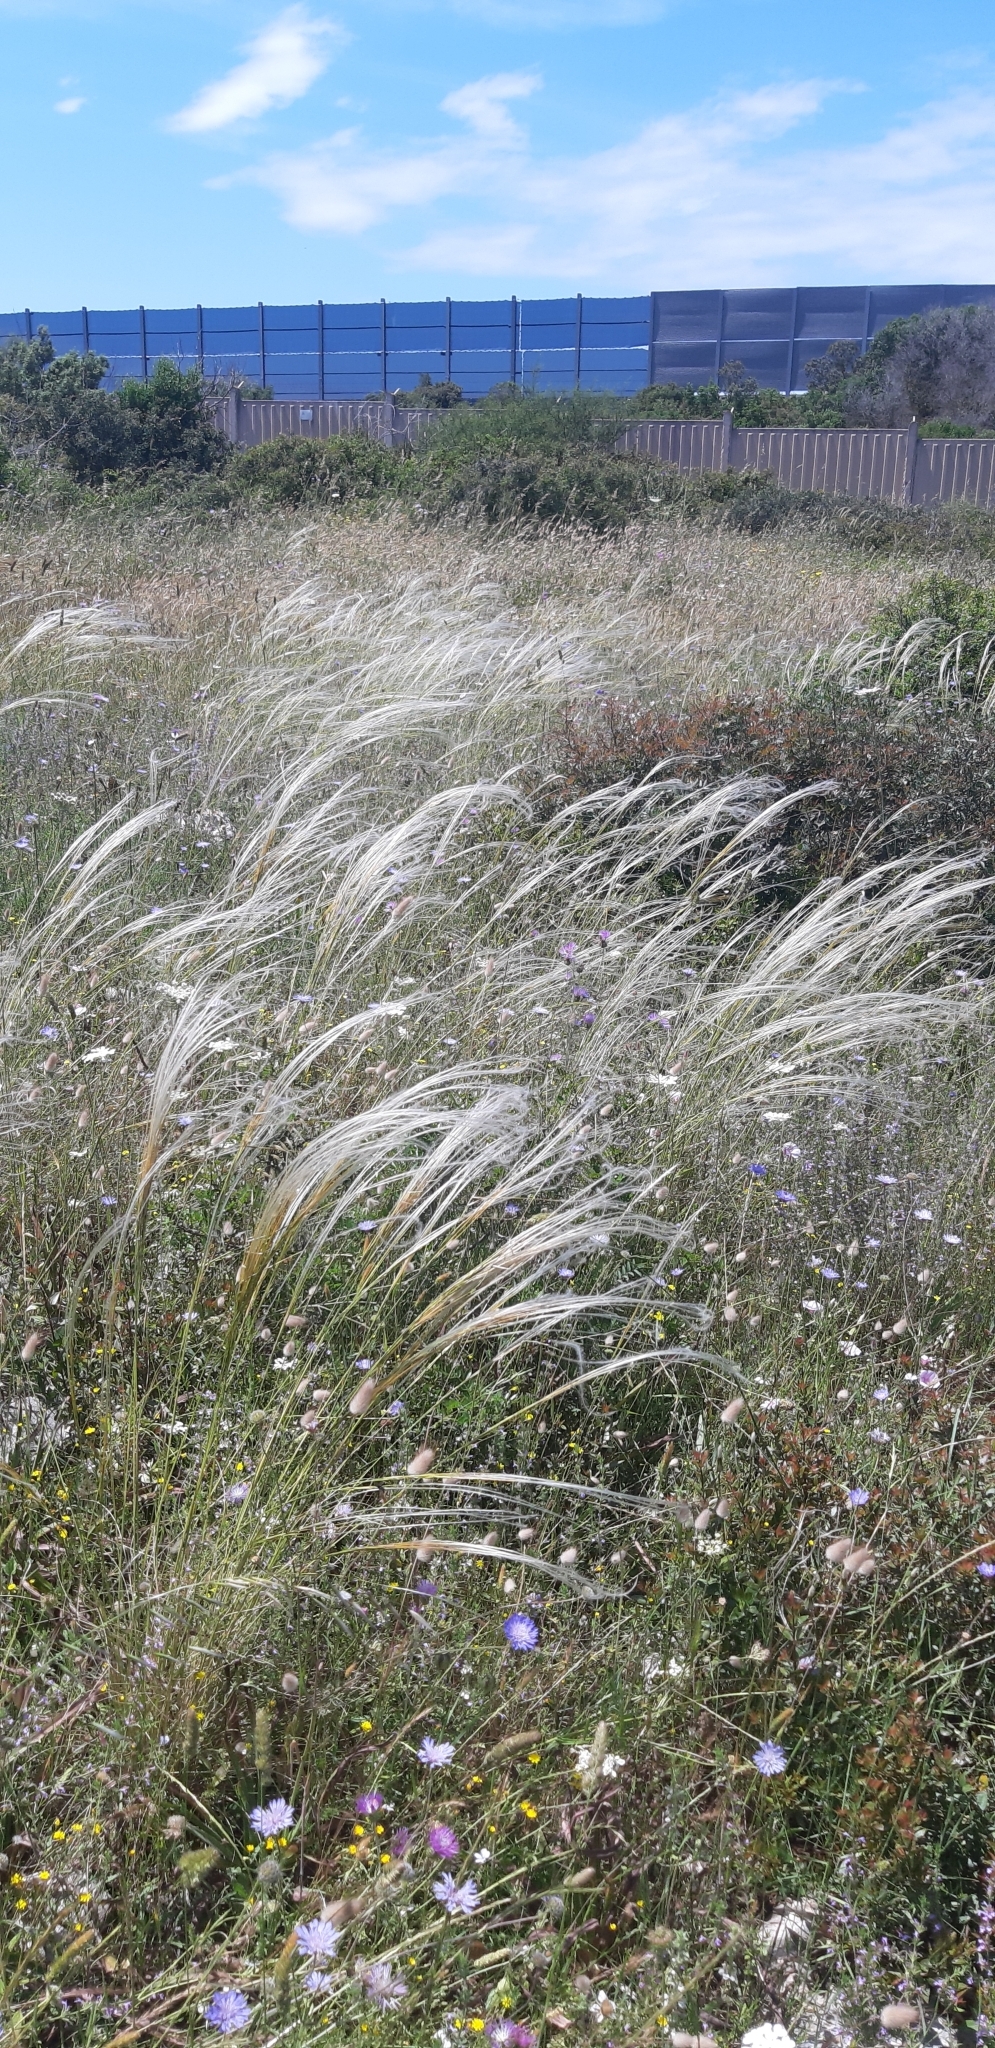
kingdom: Plantae
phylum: Tracheophyta
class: Liliopsida
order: Poales
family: Poaceae
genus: Stipa
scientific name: Stipa austroitalica
